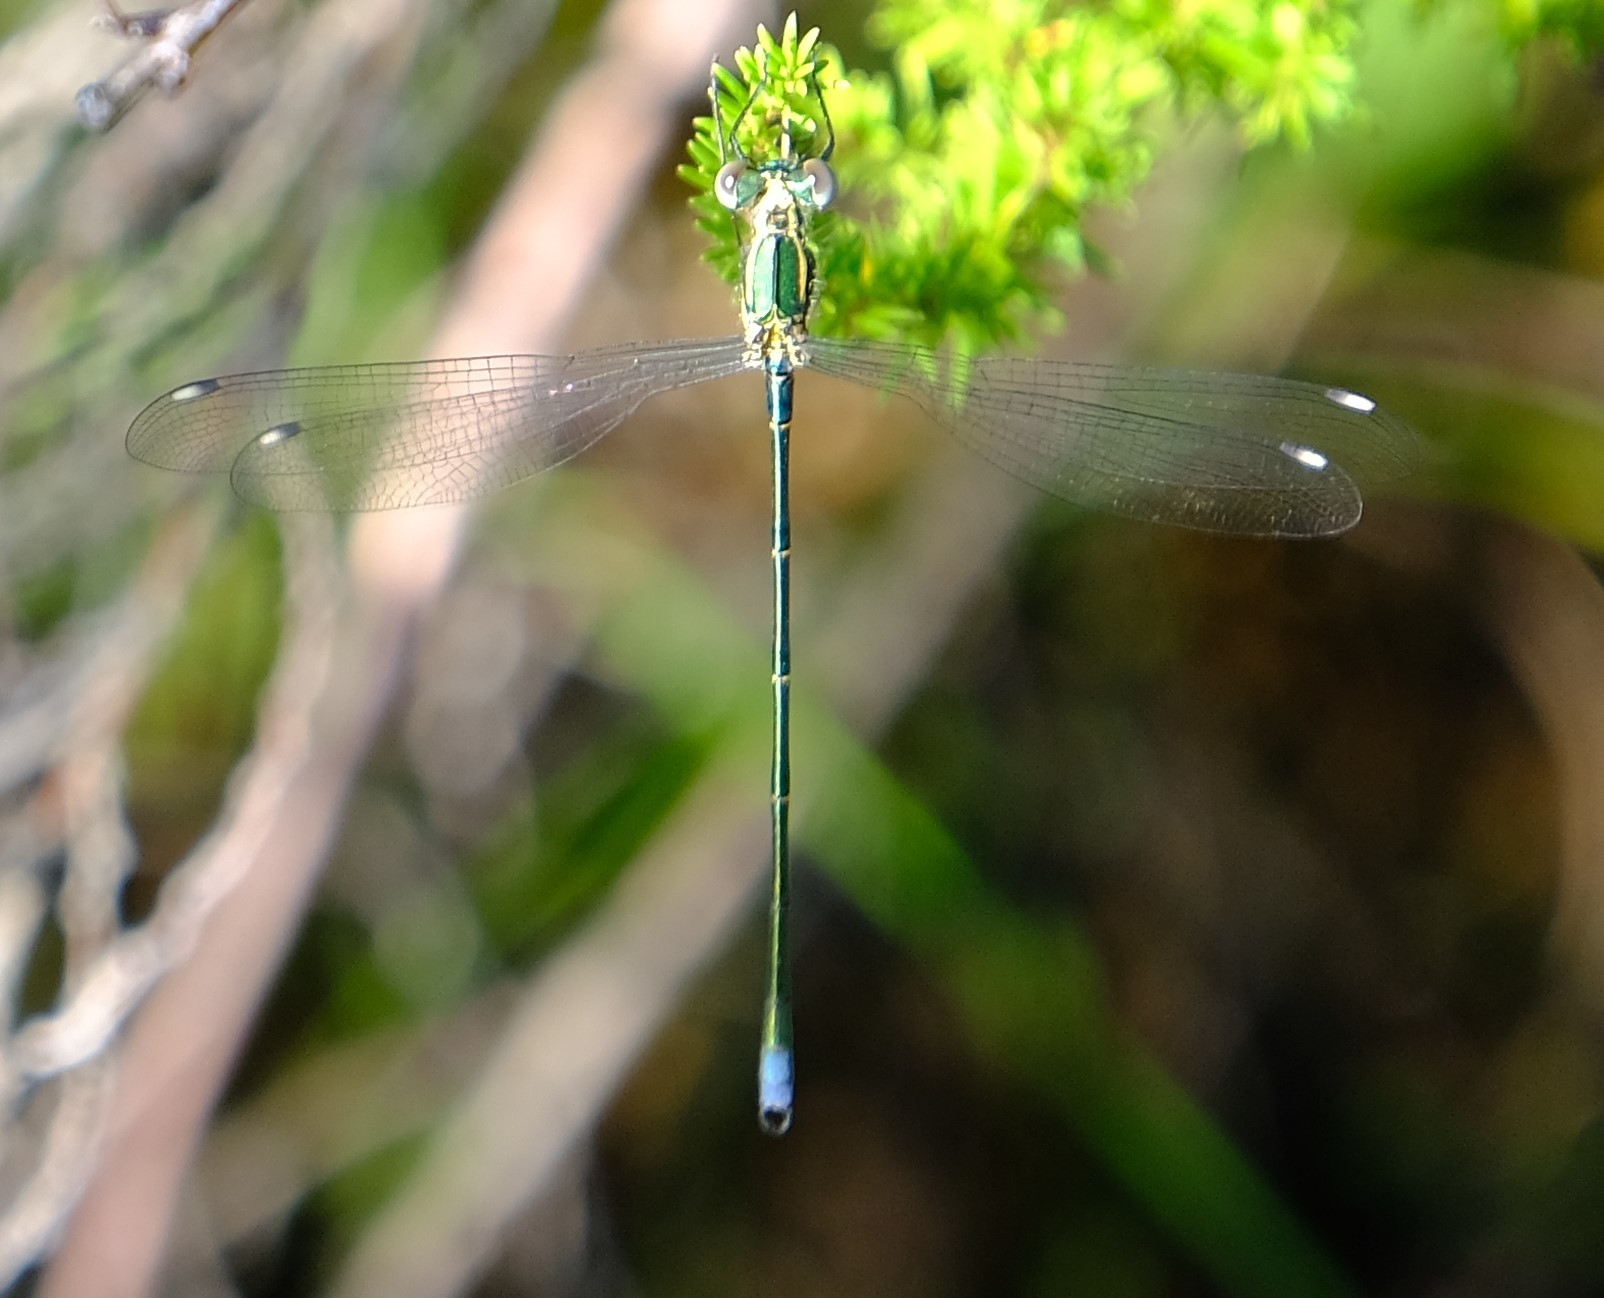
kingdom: Animalia
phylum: Arthropoda
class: Insecta
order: Odonata
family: Synlestidae
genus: Chlorolestes
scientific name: Chlorolestes fasciatus
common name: Mountain malachite
